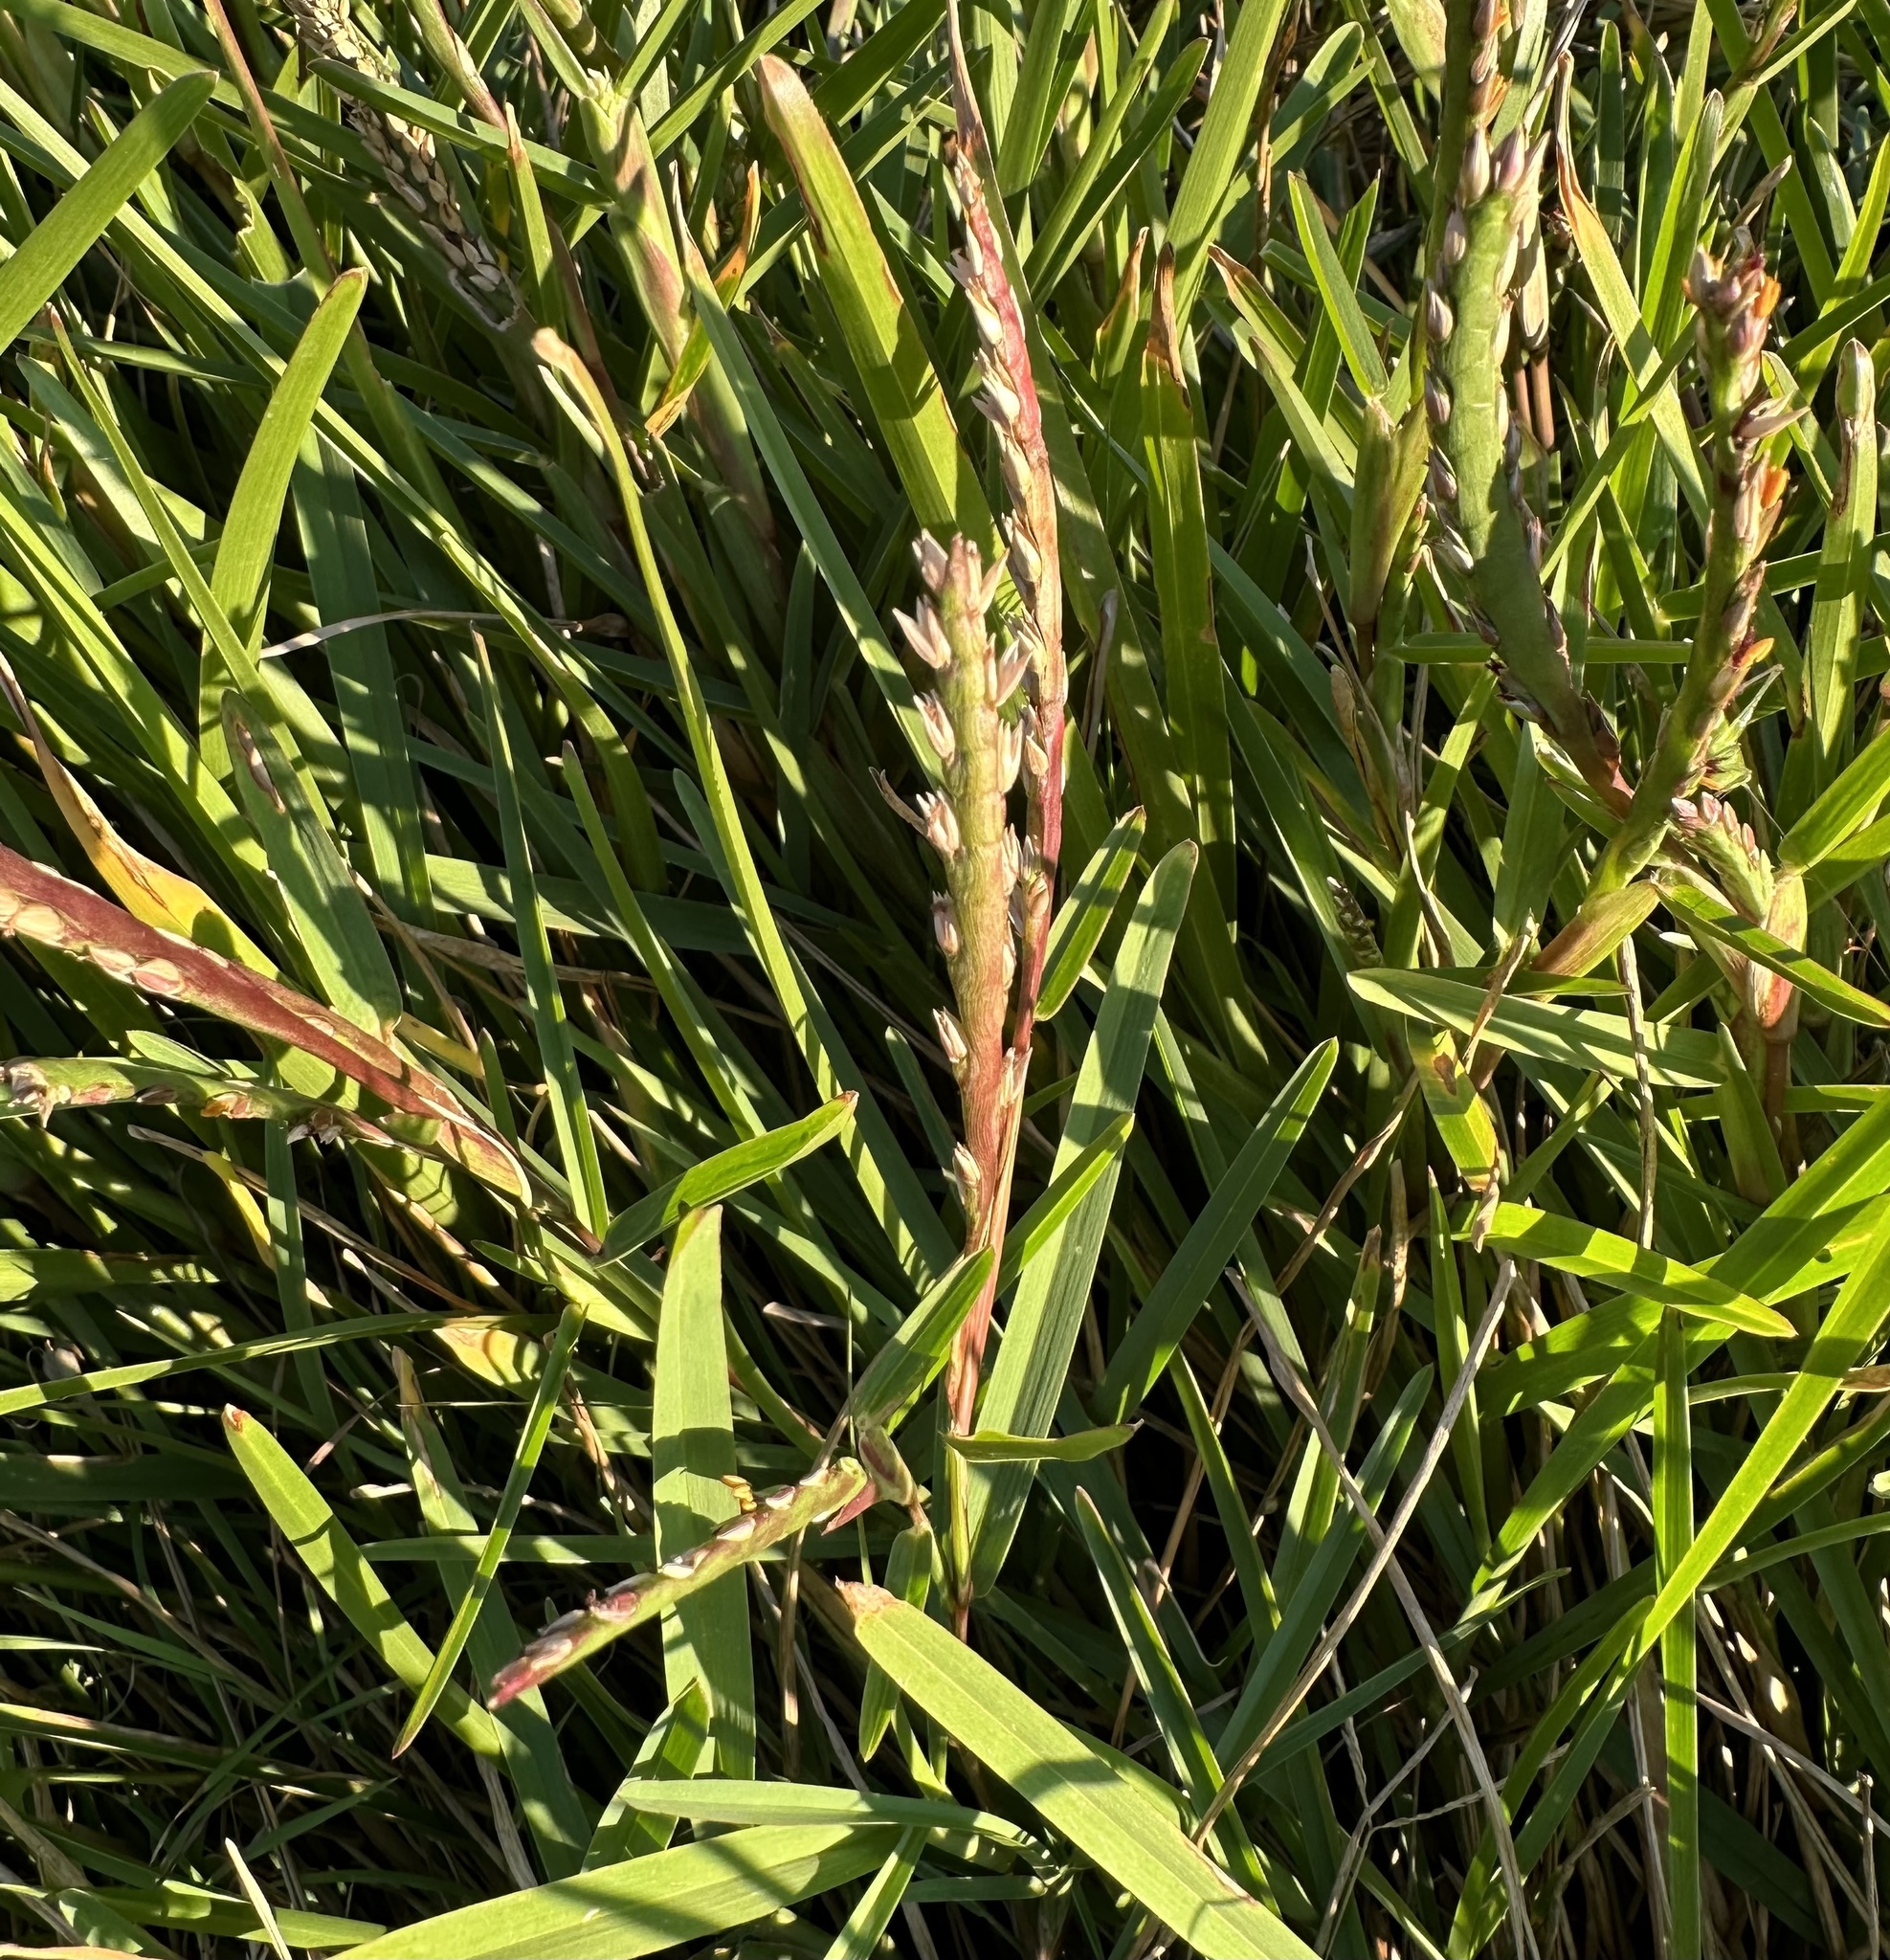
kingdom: Plantae
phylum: Tracheophyta
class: Liliopsida
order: Poales
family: Poaceae
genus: Stenotaphrum
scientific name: Stenotaphrum secundatum
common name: St. augustine grass
